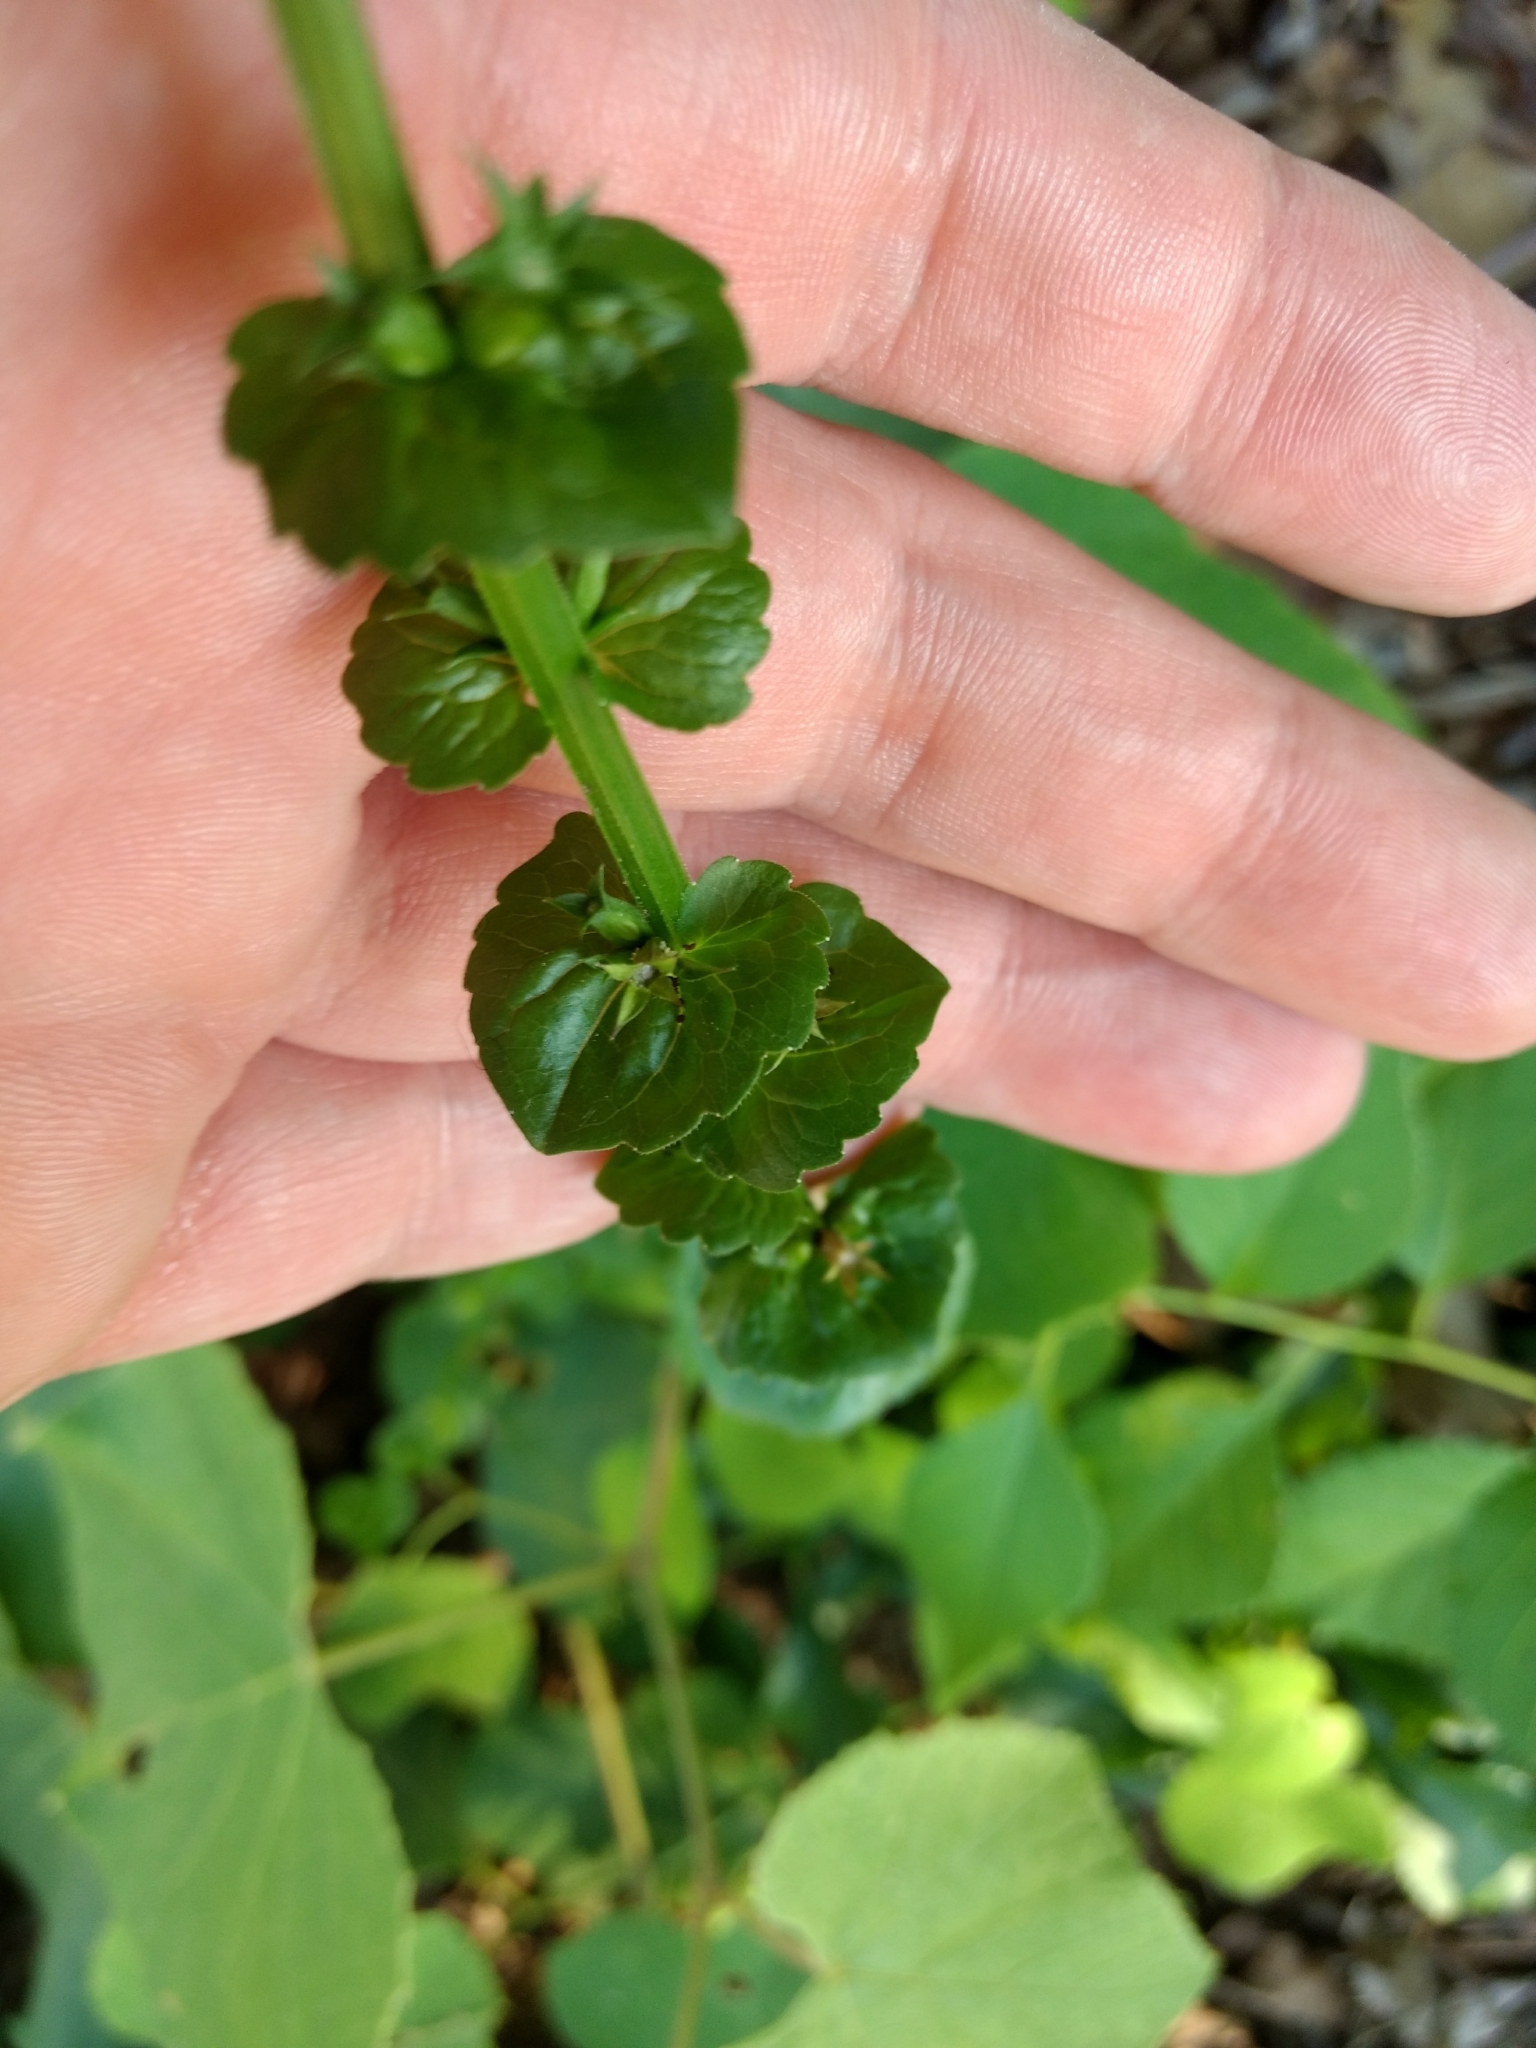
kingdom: Plantae
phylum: Tracheophyta
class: Magnoliopsida
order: Asterales
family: Campanulaceae
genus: Triodanis
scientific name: Triodanis perfoliata
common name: Clasping venus' looking-glass
